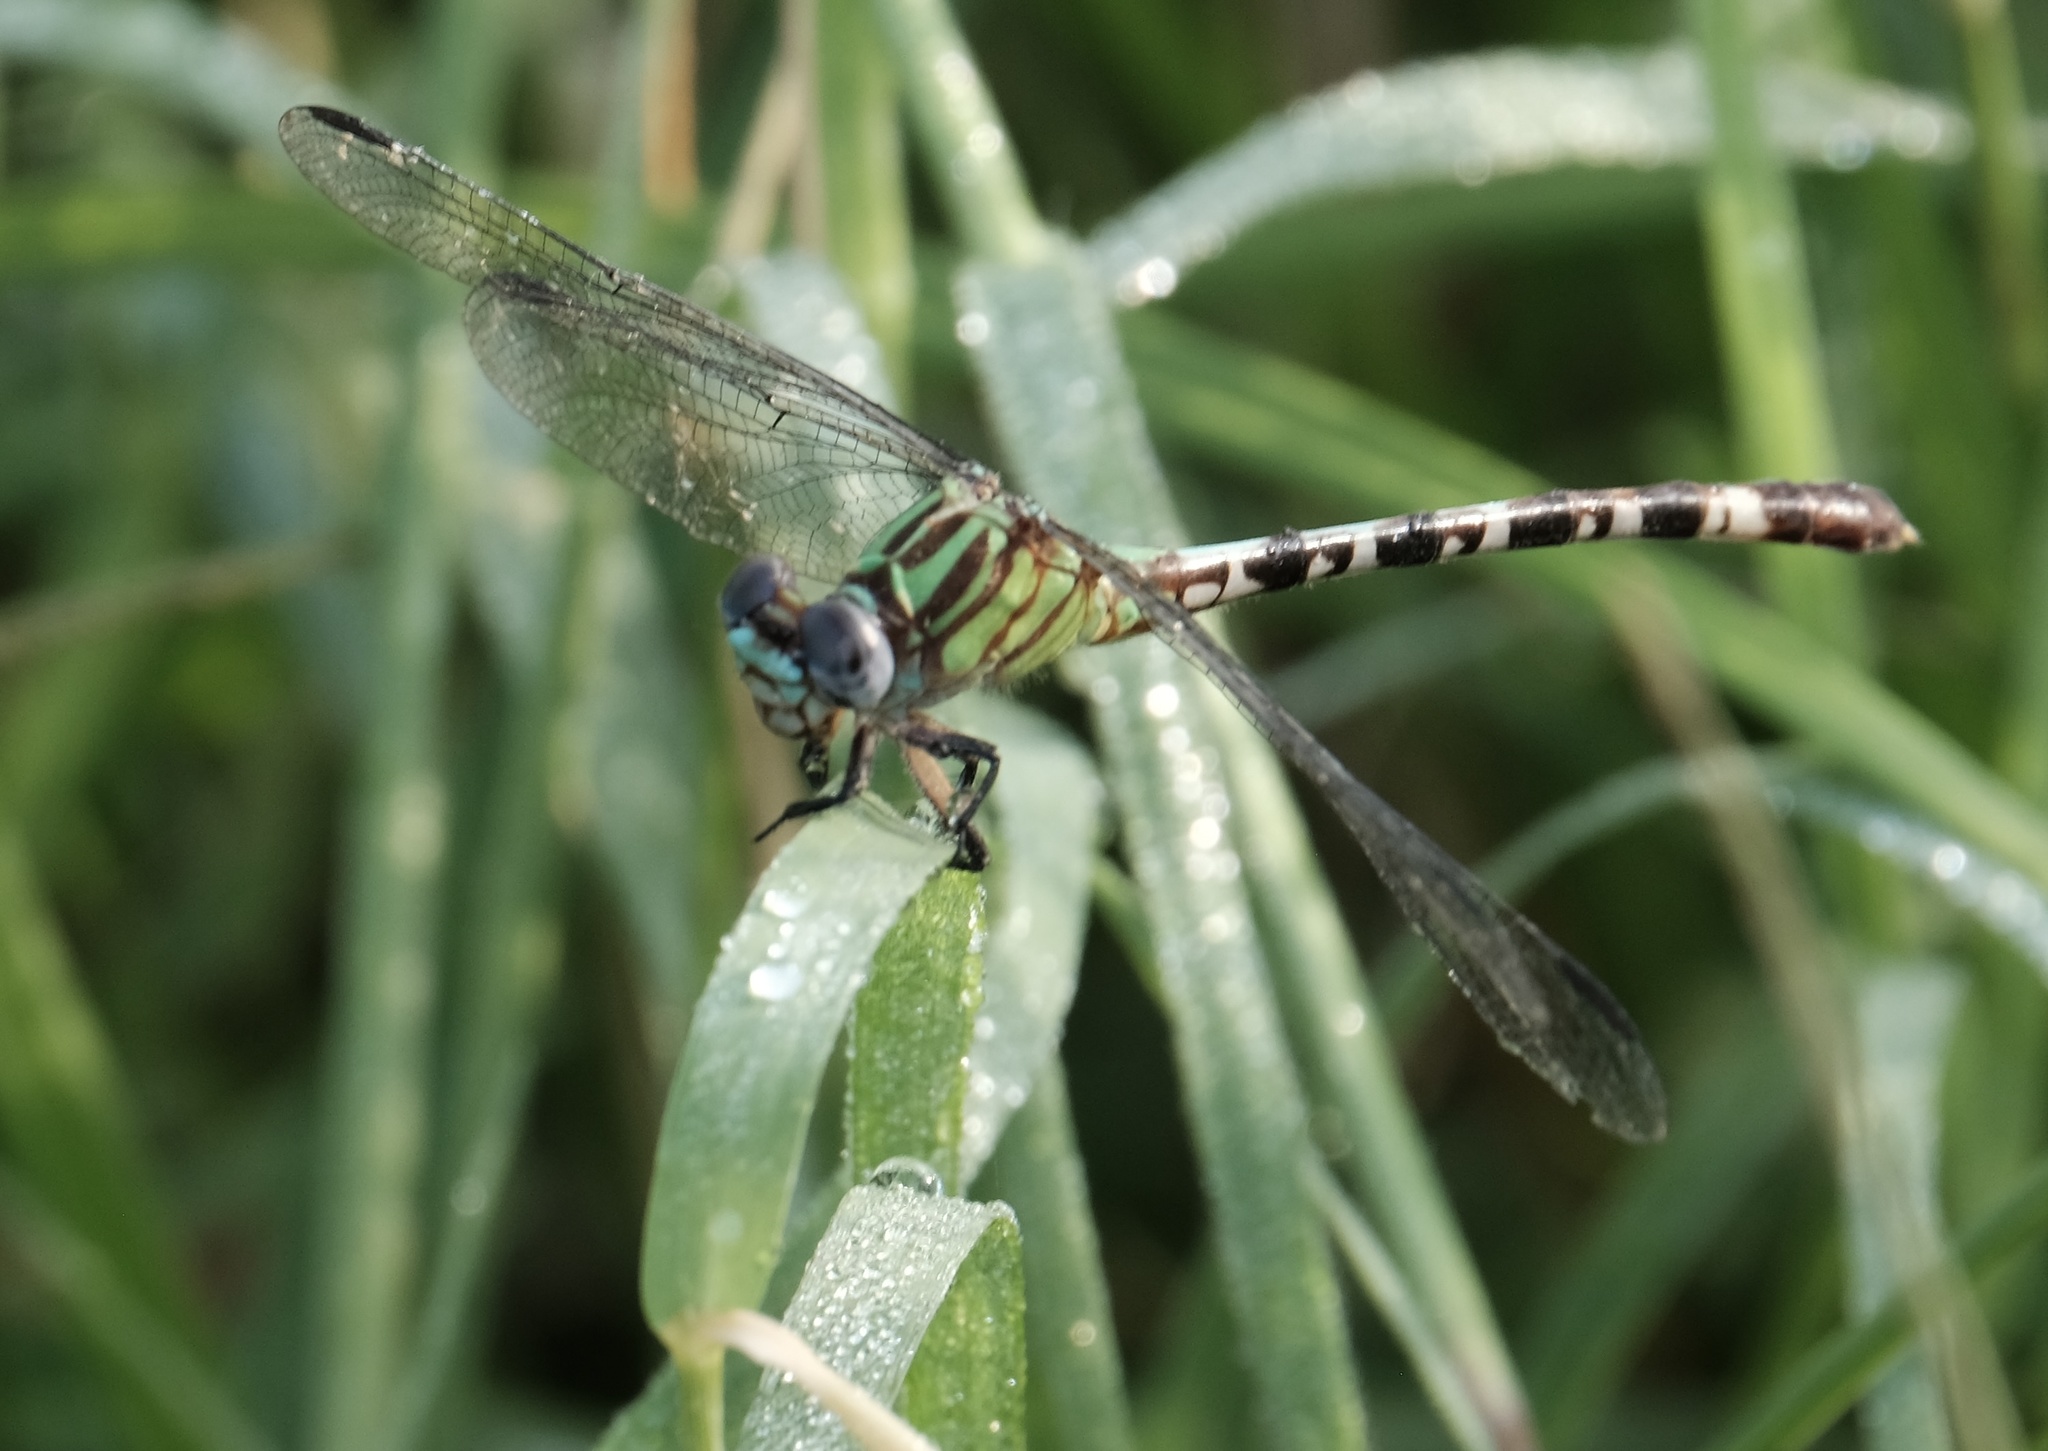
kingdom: Animalia
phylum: Arthropoda
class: Insecta
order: Odonata
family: Gomphidae
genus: Erpetogomphus
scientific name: Erpetogomphus eutainia
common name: Blue-faced ringtail
